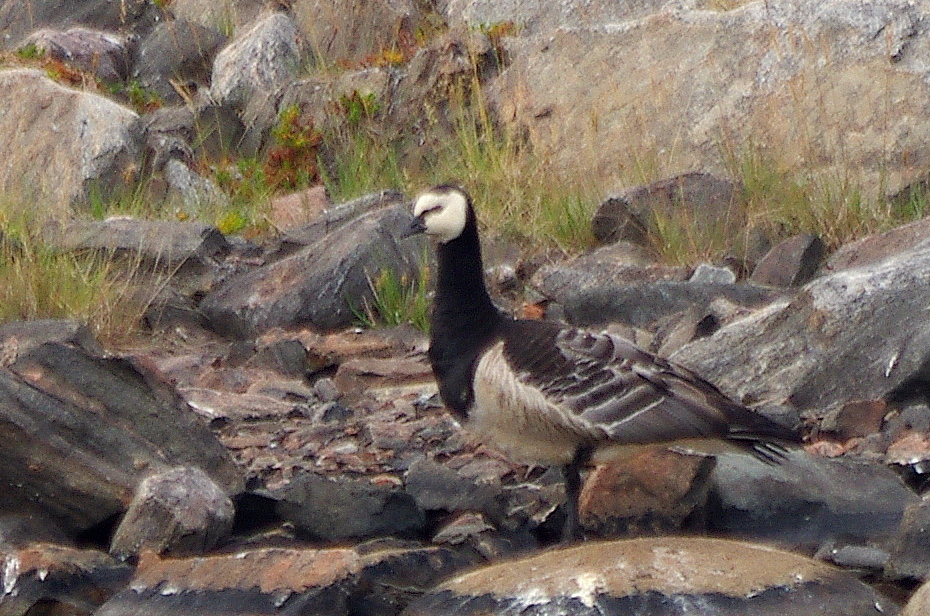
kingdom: Animalia
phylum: Chordata
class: Aves
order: Anseriformes
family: Anatidae
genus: Branta
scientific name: Branta leucopsis
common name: Barnacle goose
